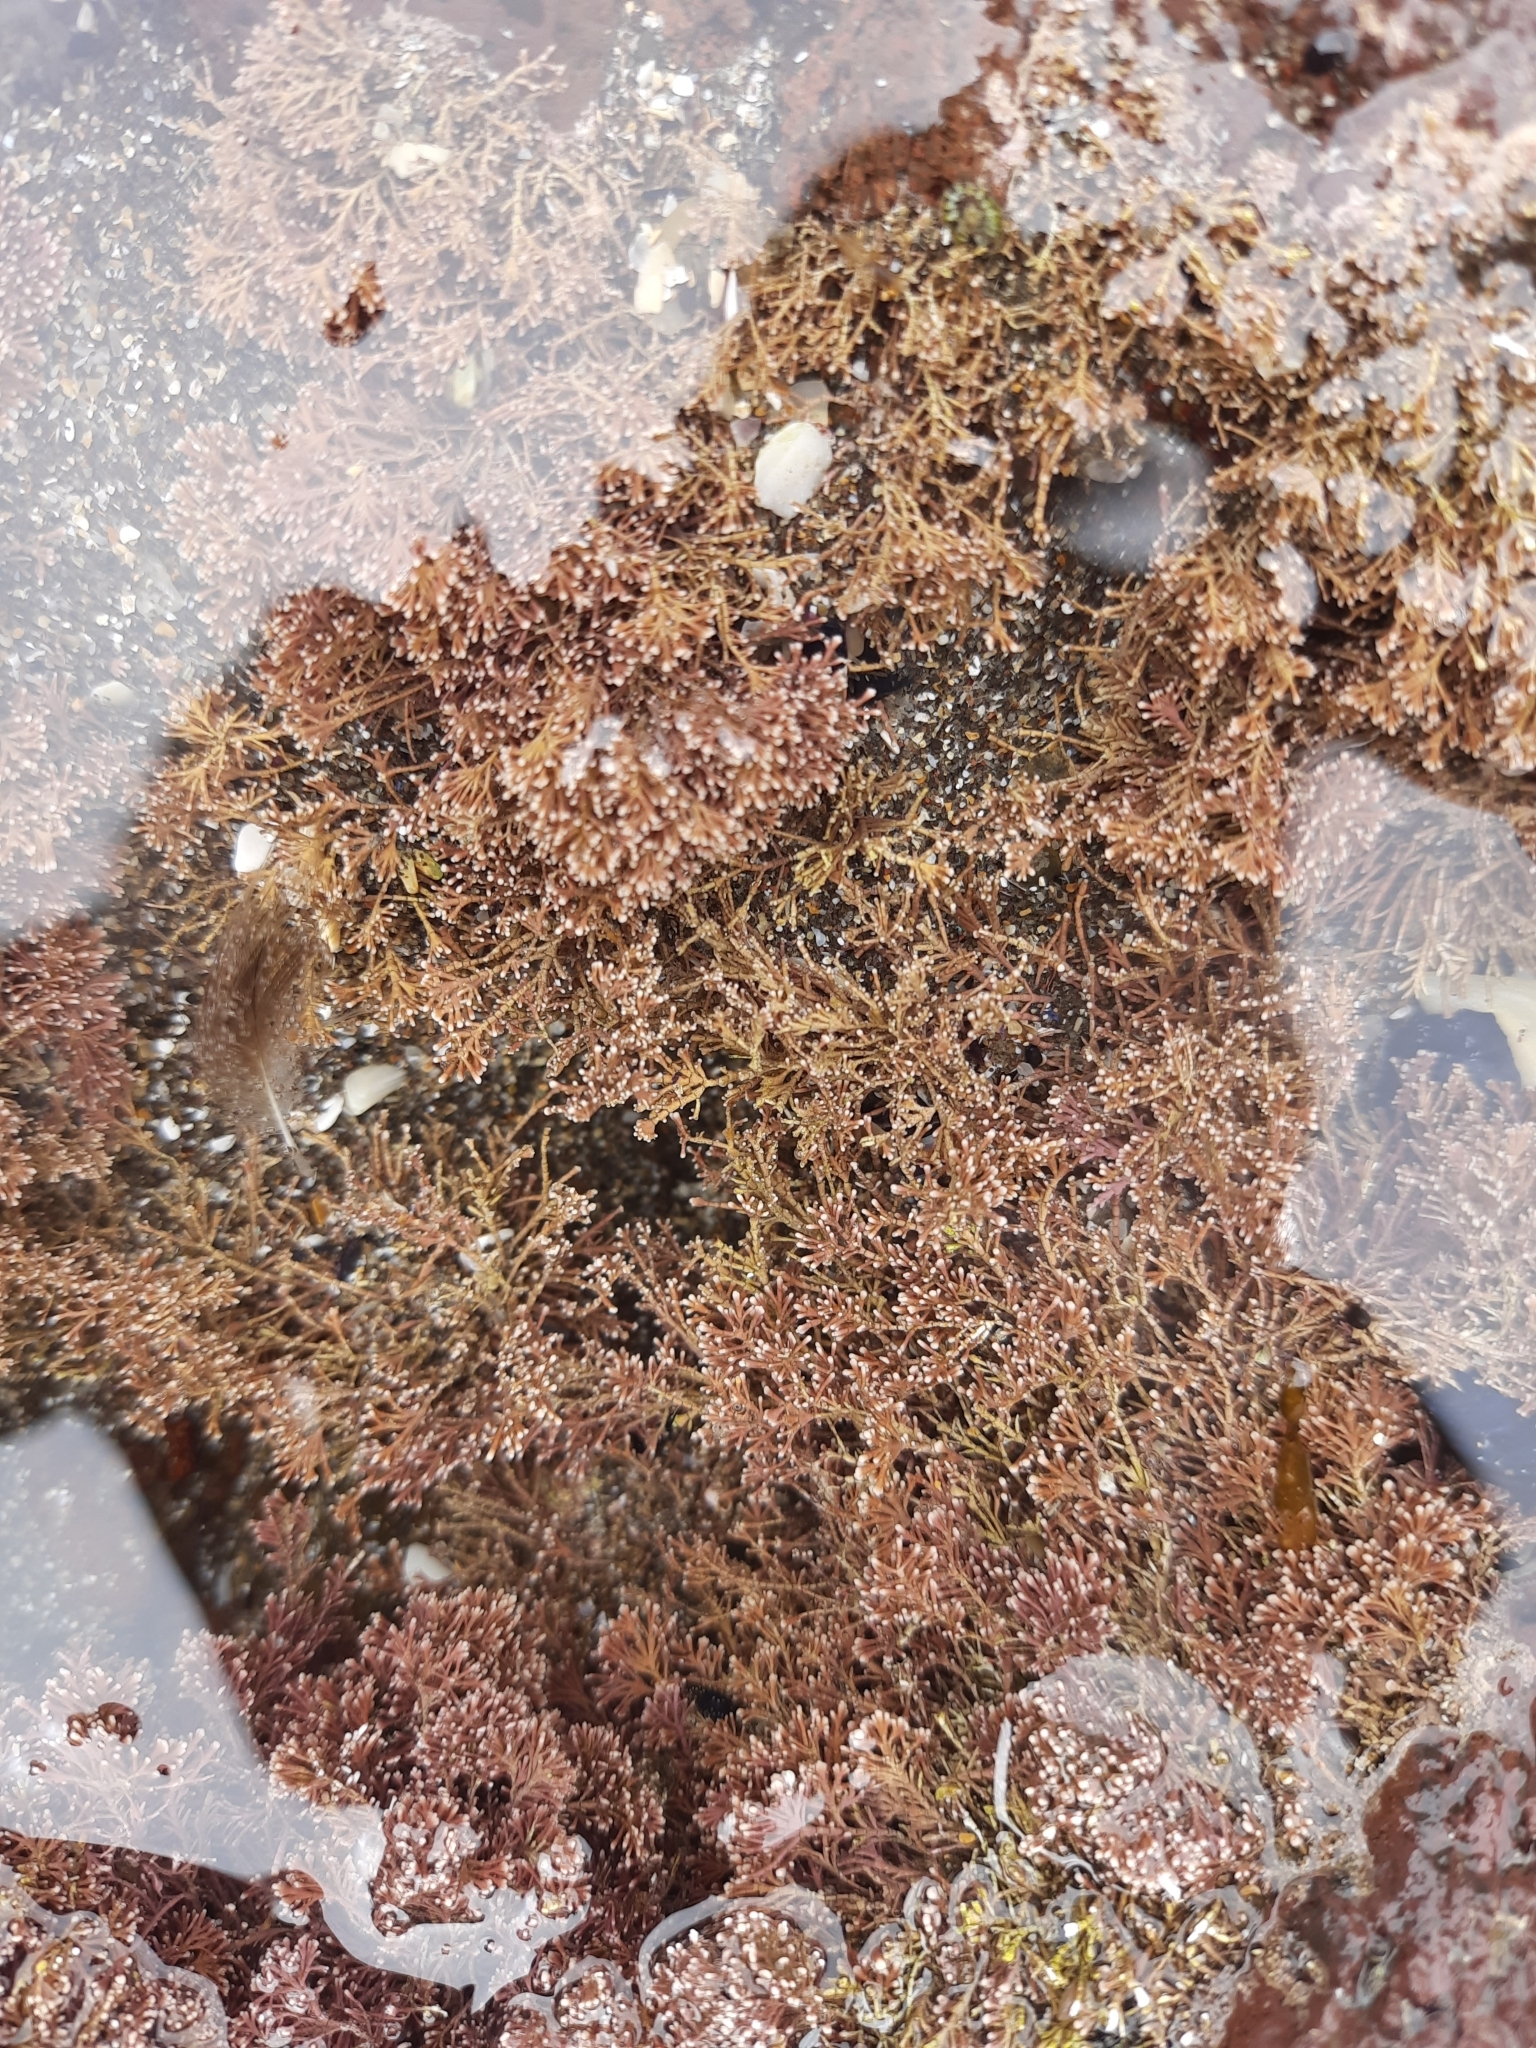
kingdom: Plantae
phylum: Rhodophyta
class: Florideophyceae
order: Corallinales
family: Corallinaceae
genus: Corallina
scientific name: Corallina officinalis
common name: Coral weed
